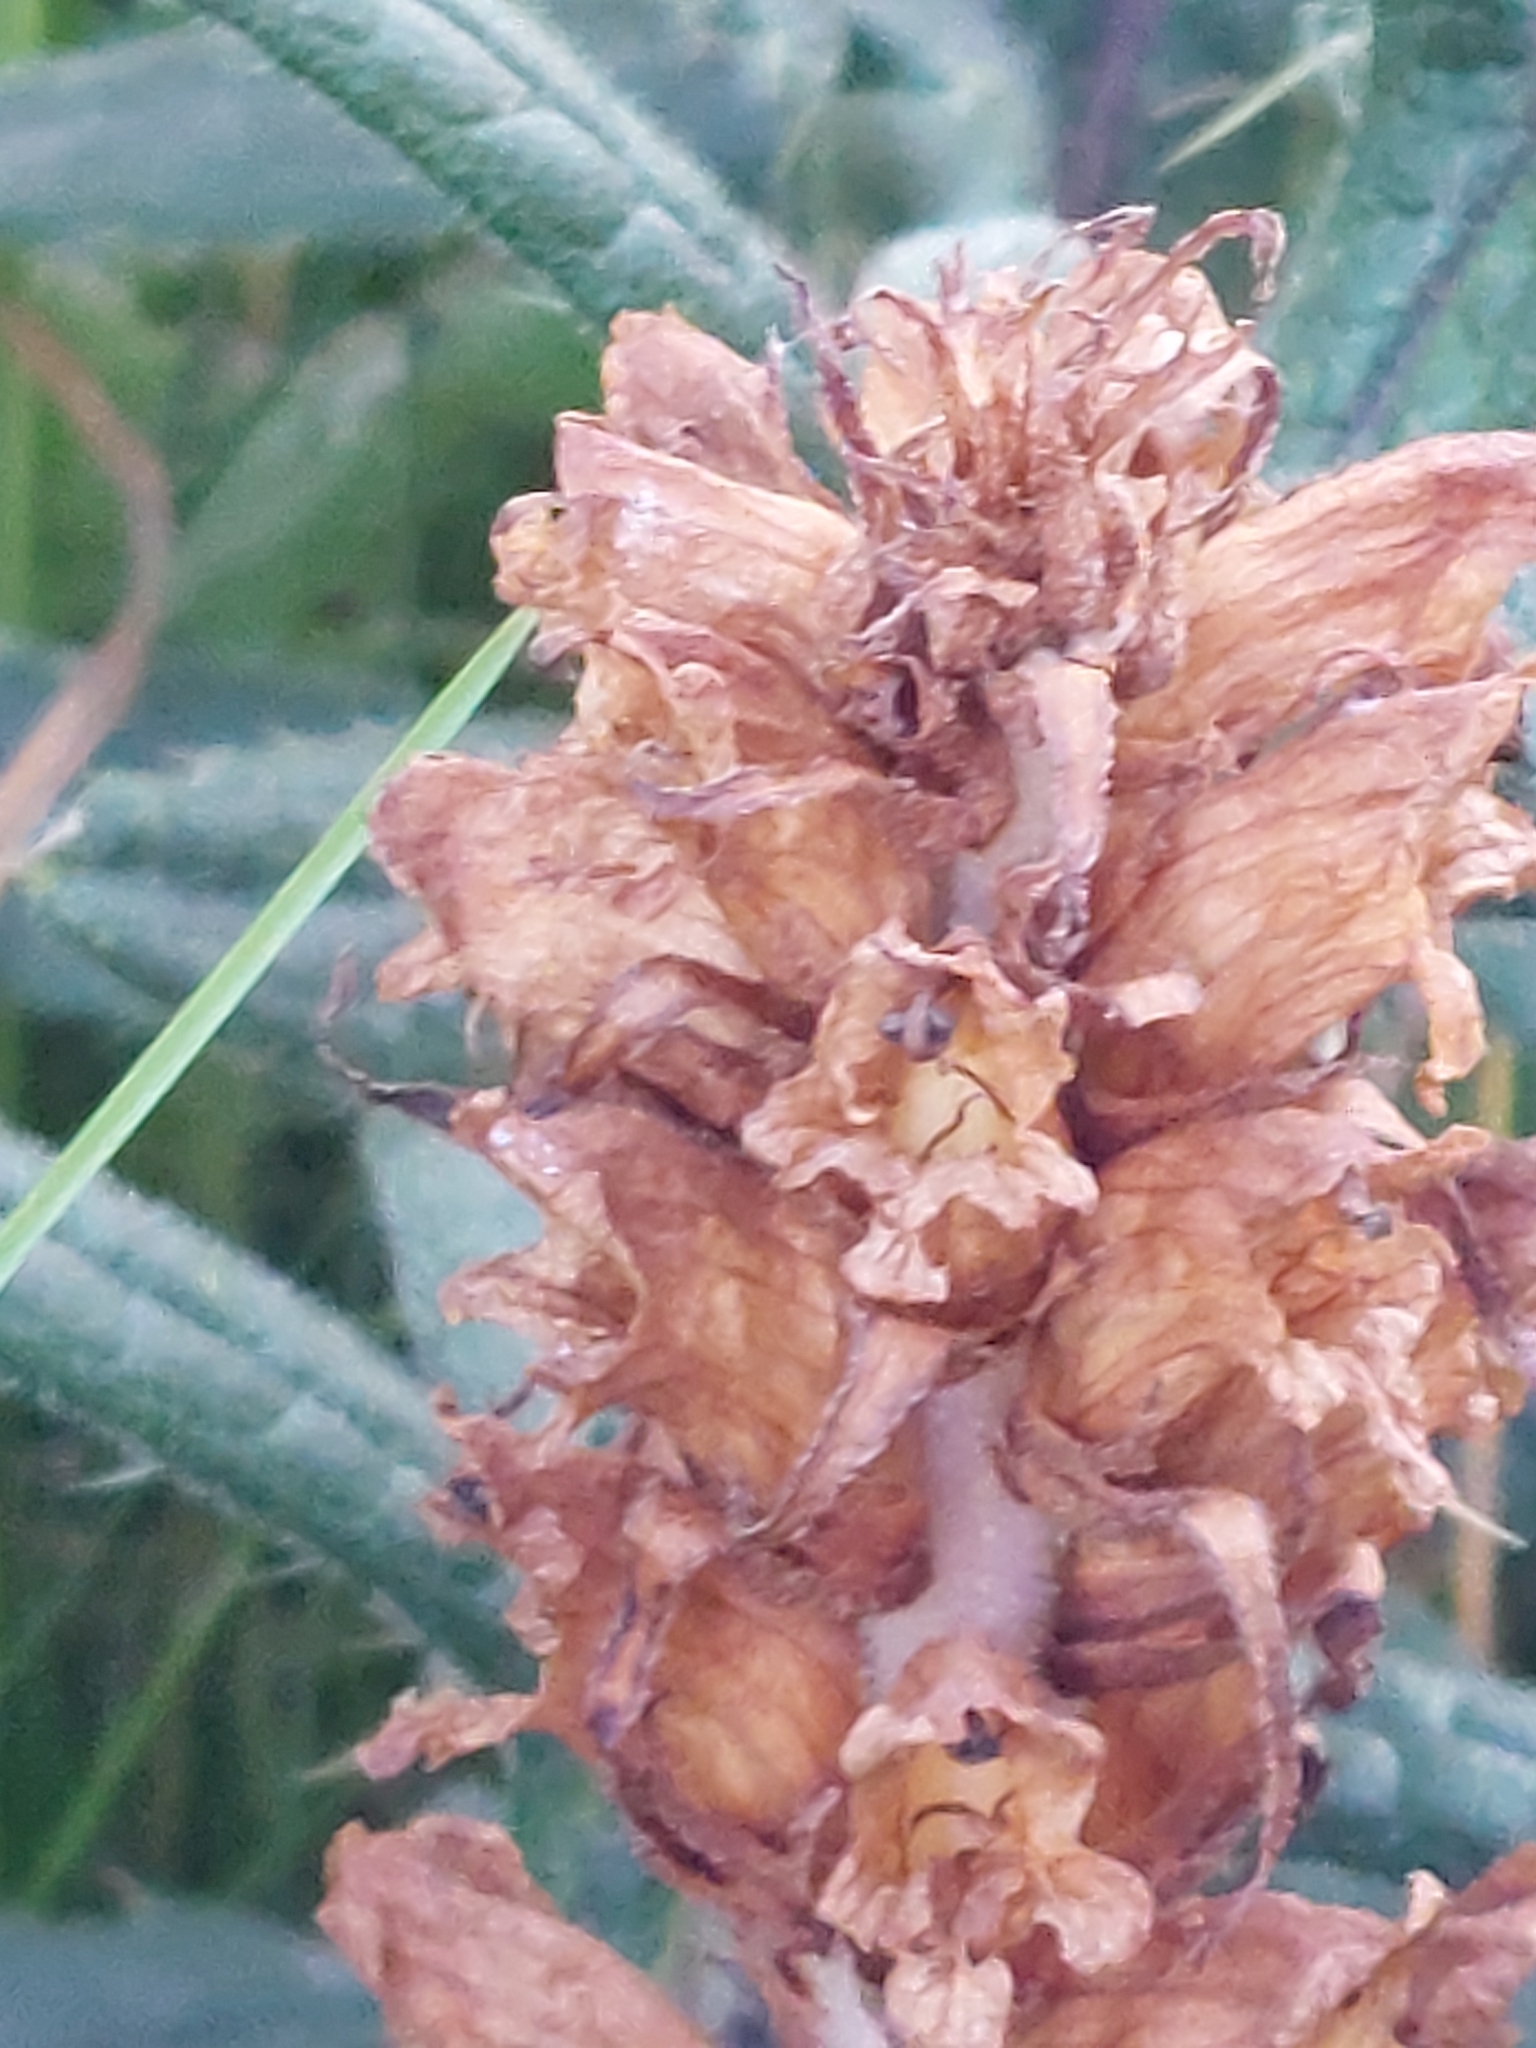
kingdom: Plantae
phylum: Tracheophyta
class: Magnoliopsida
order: Lamiales
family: Orobanchaceae
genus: Orobanche
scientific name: Orobanche reticulata
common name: Thistle broomrape
